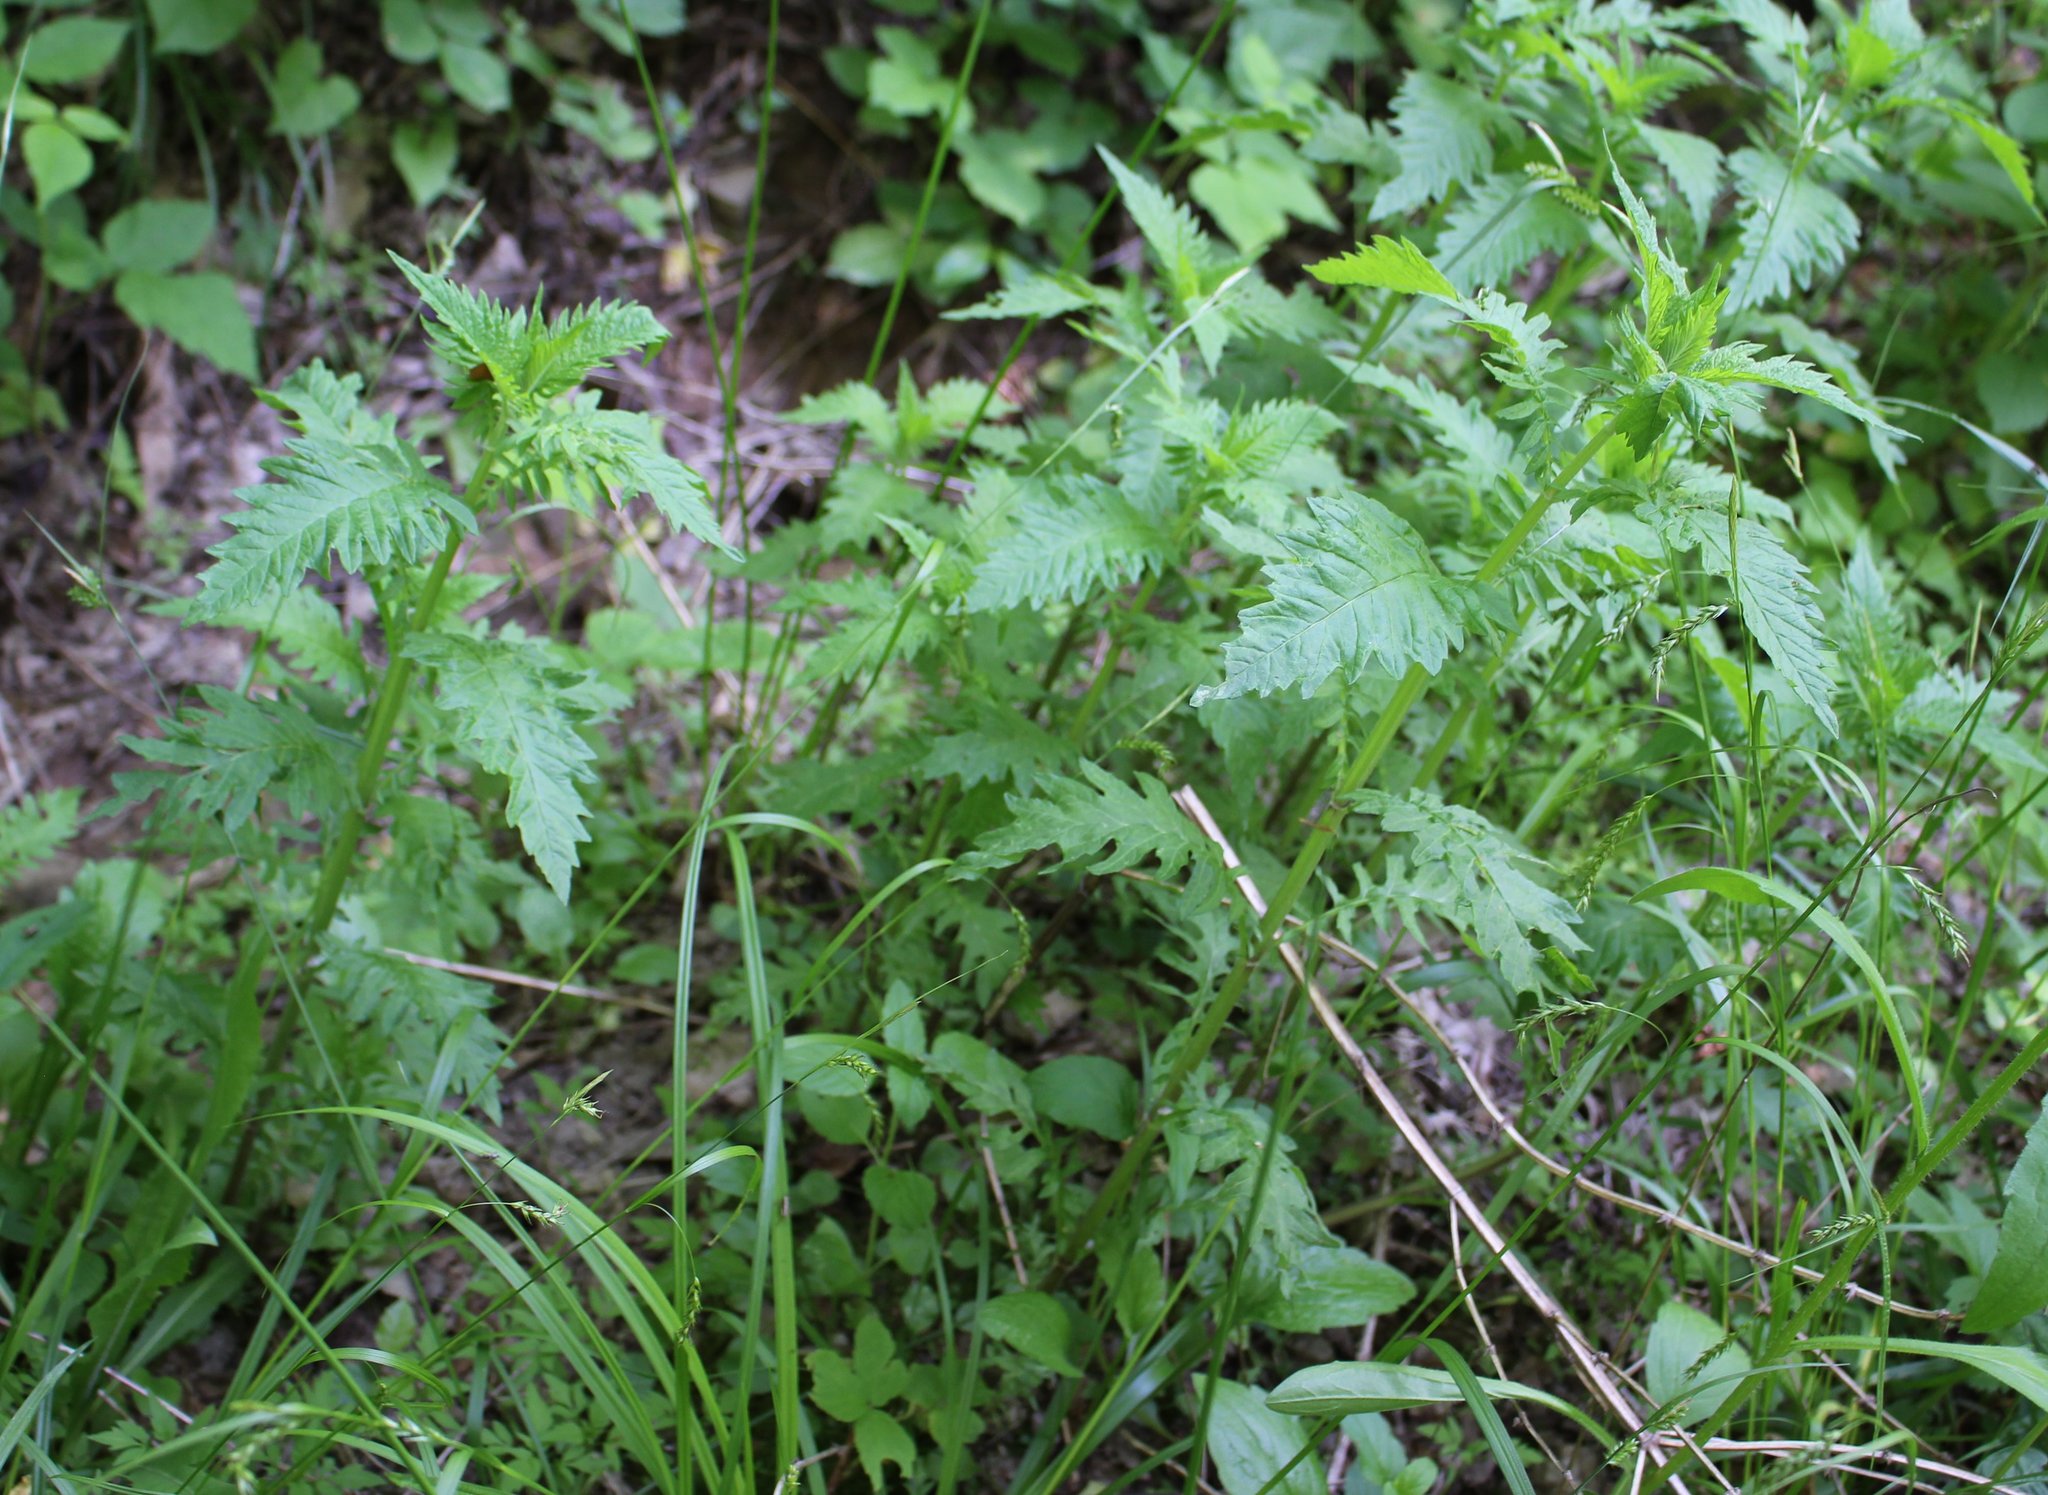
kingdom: Plantae
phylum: Tracheophyta
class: Magnoliopsida
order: Lamiales
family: Lamiaceae
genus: Lycopus
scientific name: Lycopus europaeus
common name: European bugleweed
